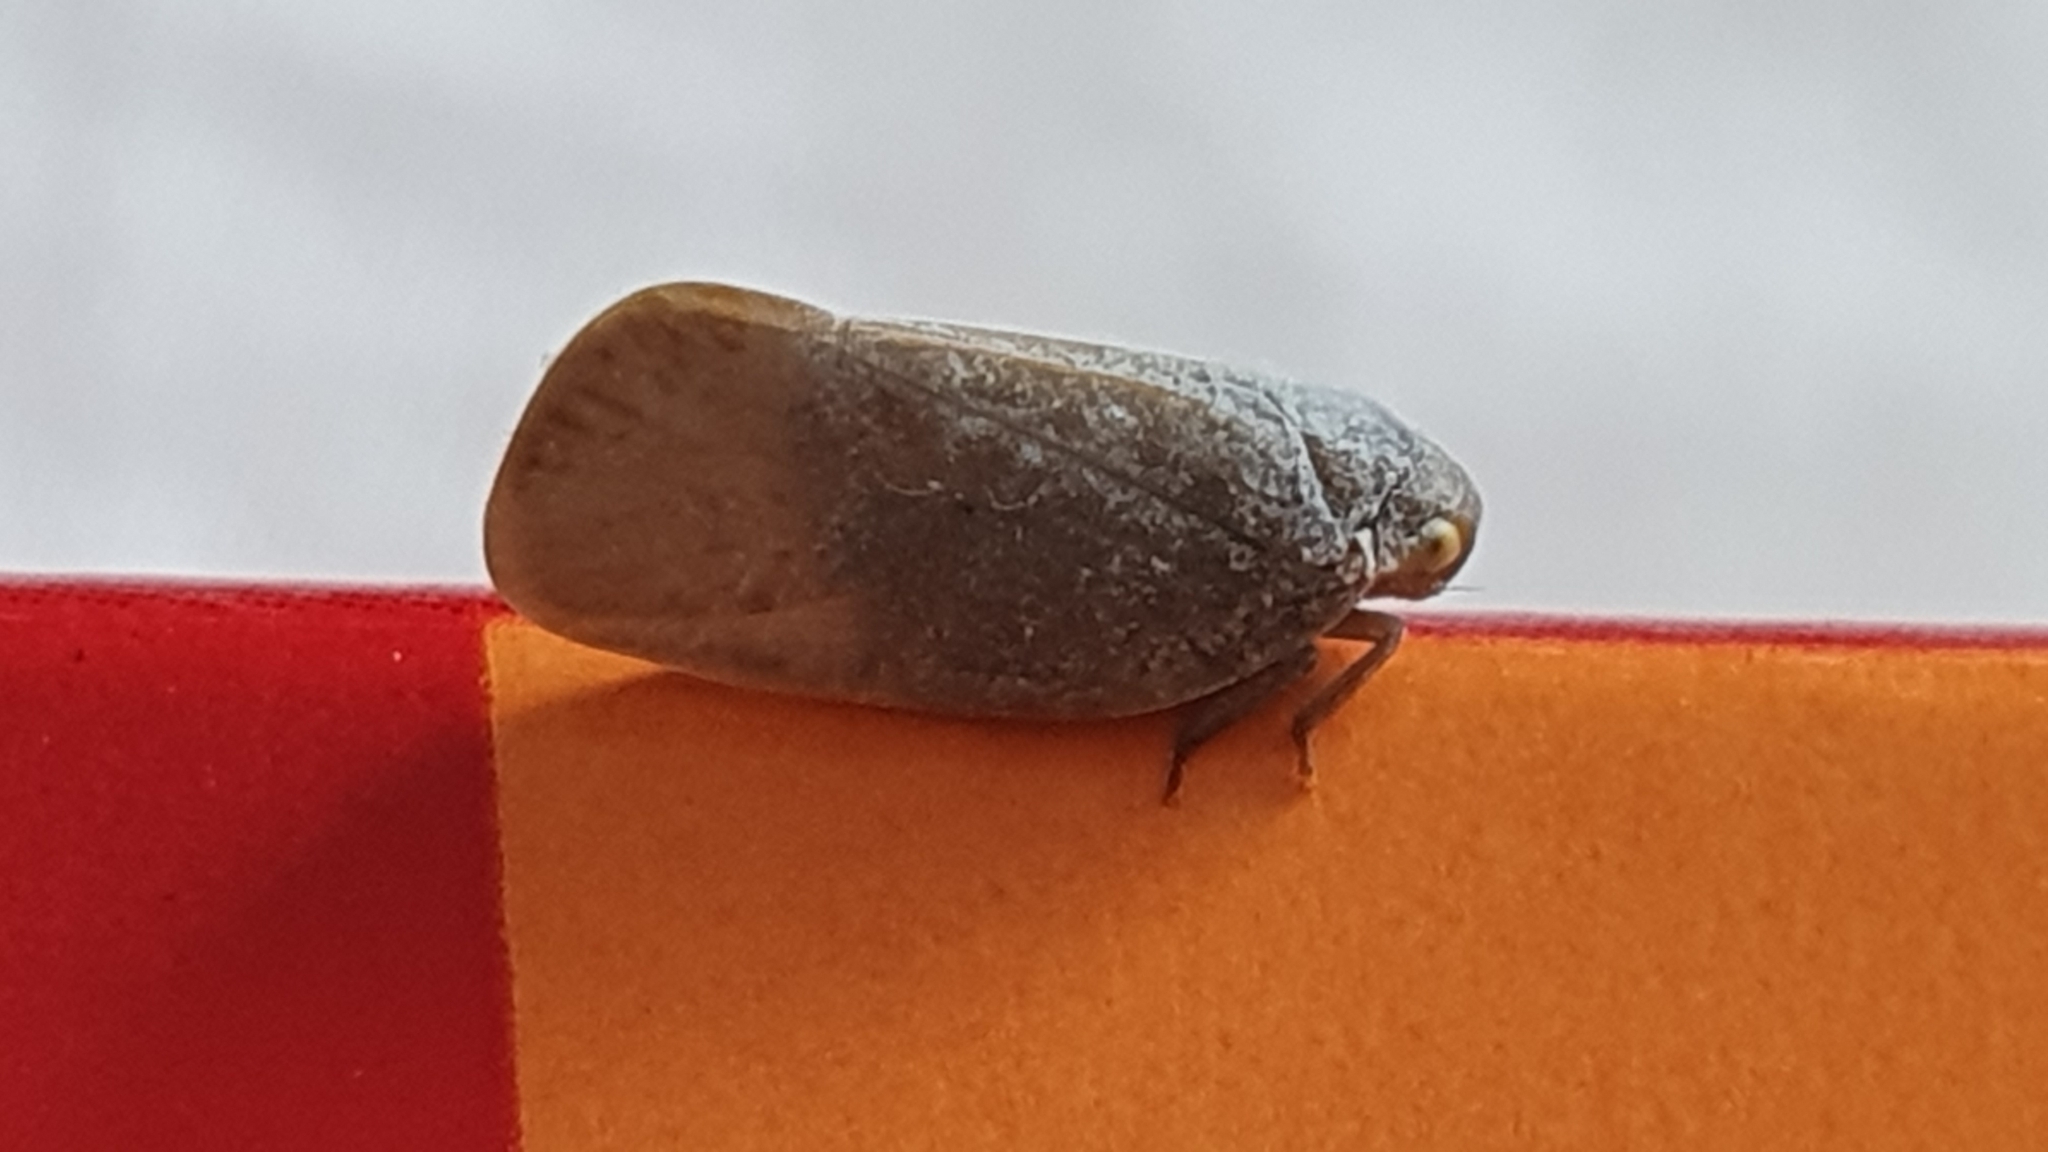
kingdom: Animalia
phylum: Arthropoda
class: Insecta
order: Hemiptera
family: Flatidae
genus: Anzora
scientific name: Anzora unicolor
